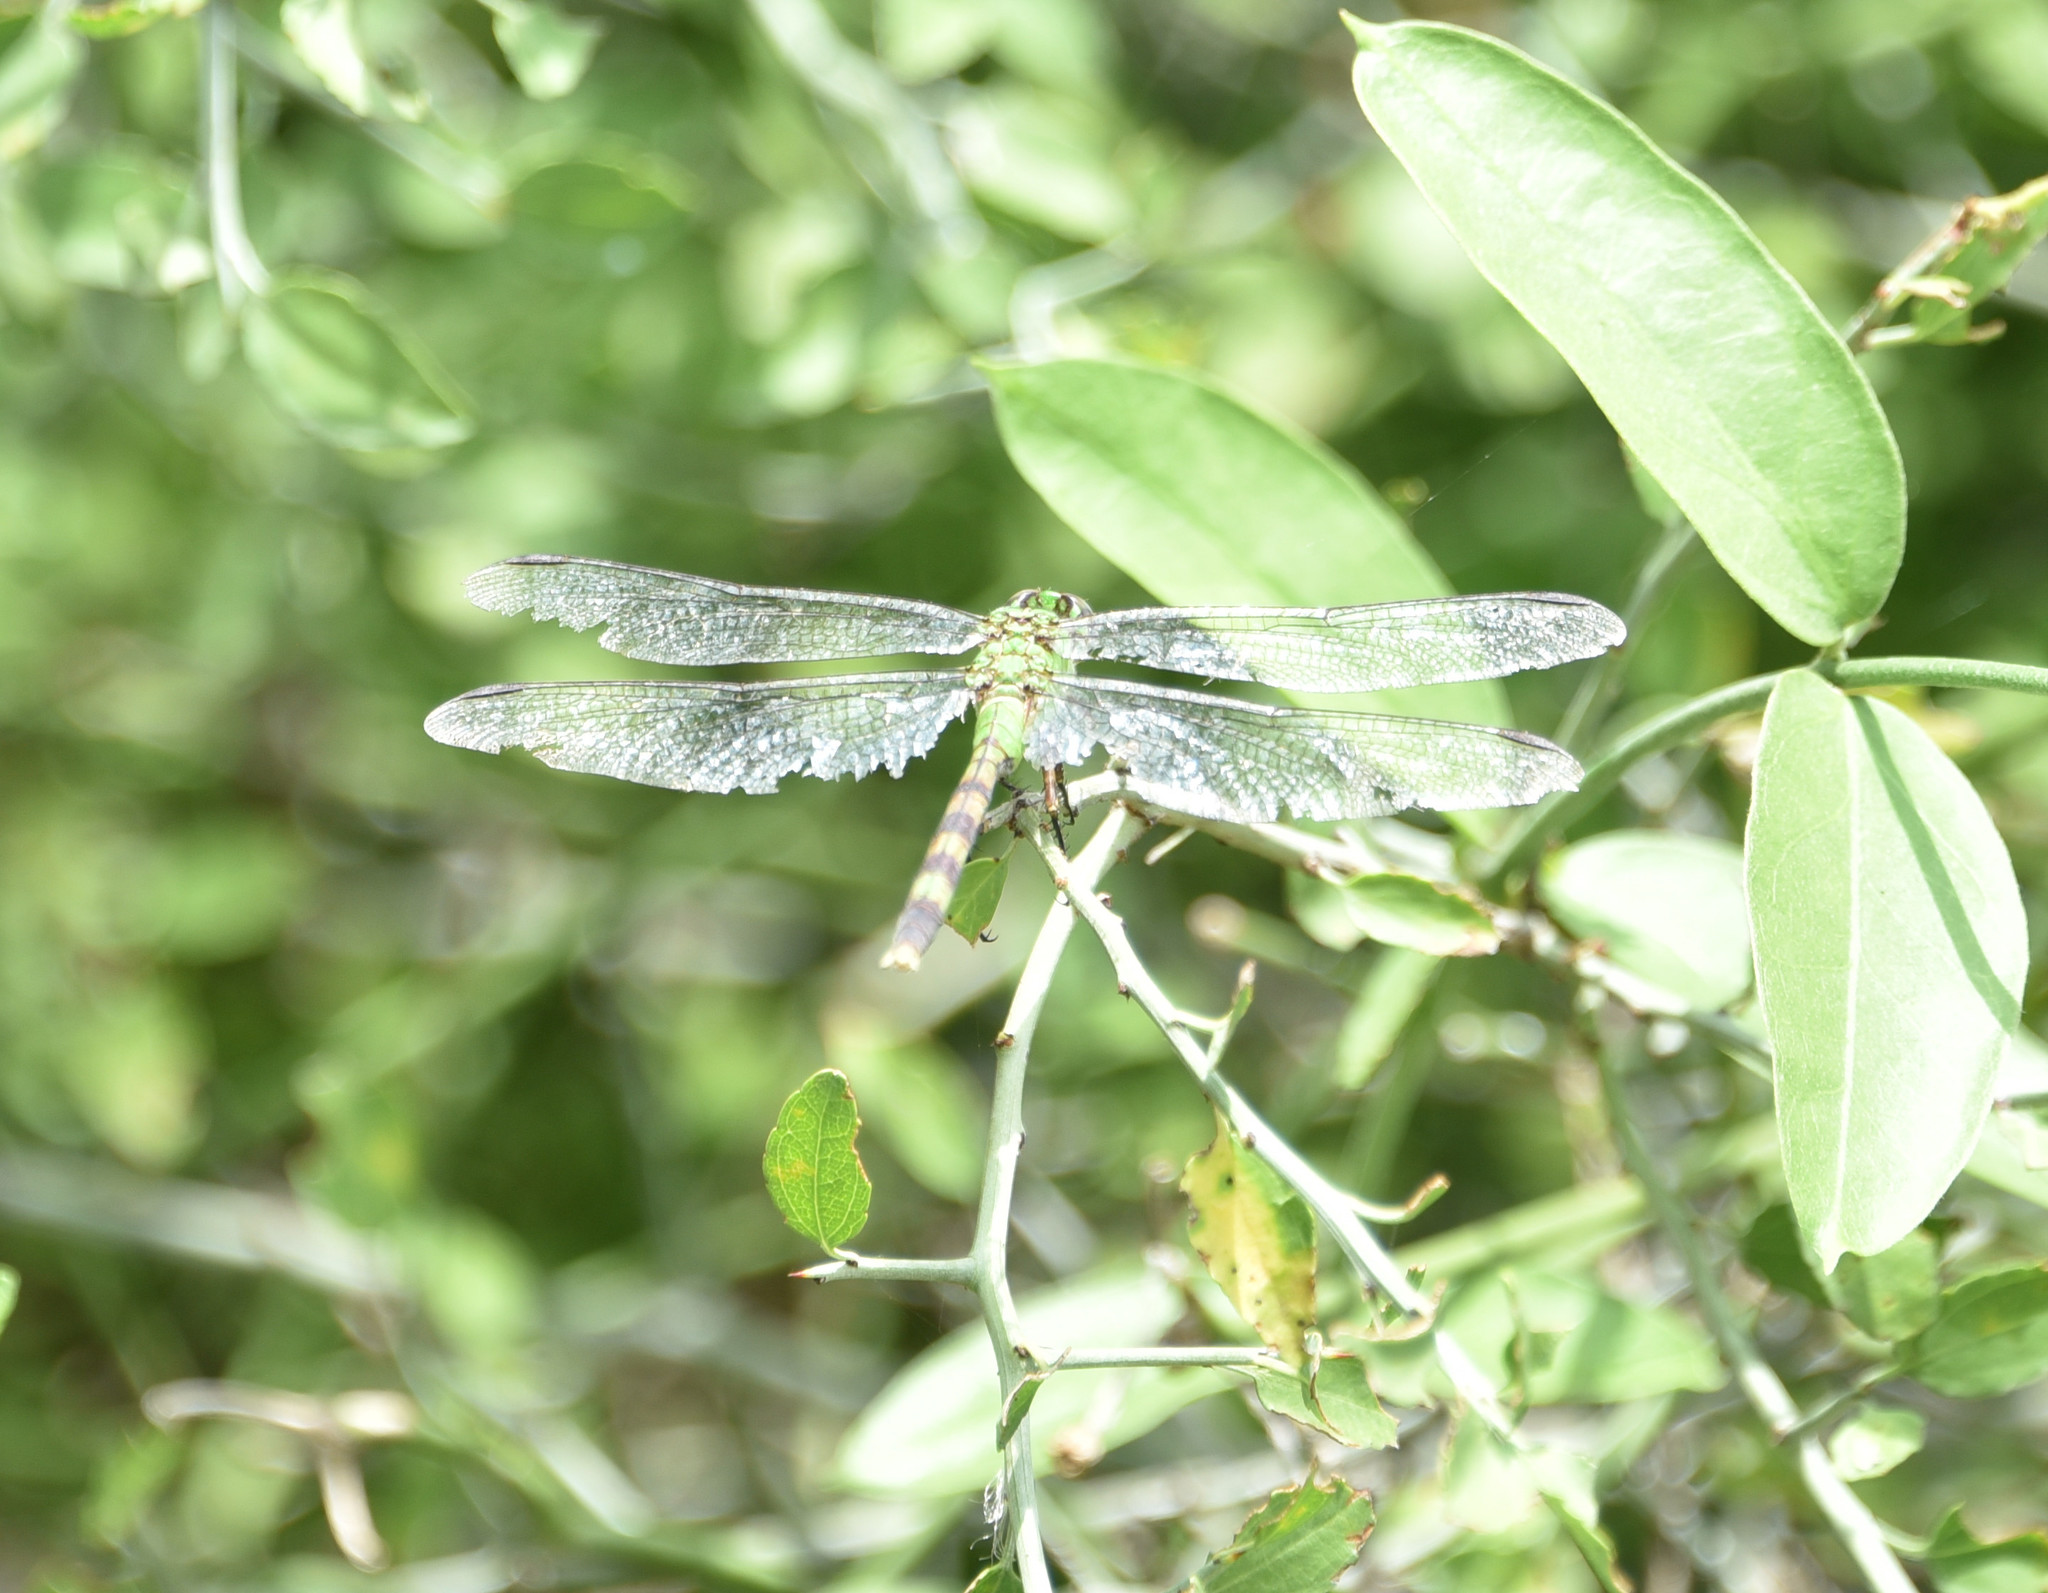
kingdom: Animalia
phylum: Arthropoda
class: Insecta
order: Odonata
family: Libellulidae
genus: Erythemis
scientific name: Erythemis vesiculosa
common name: Great pondhawk
